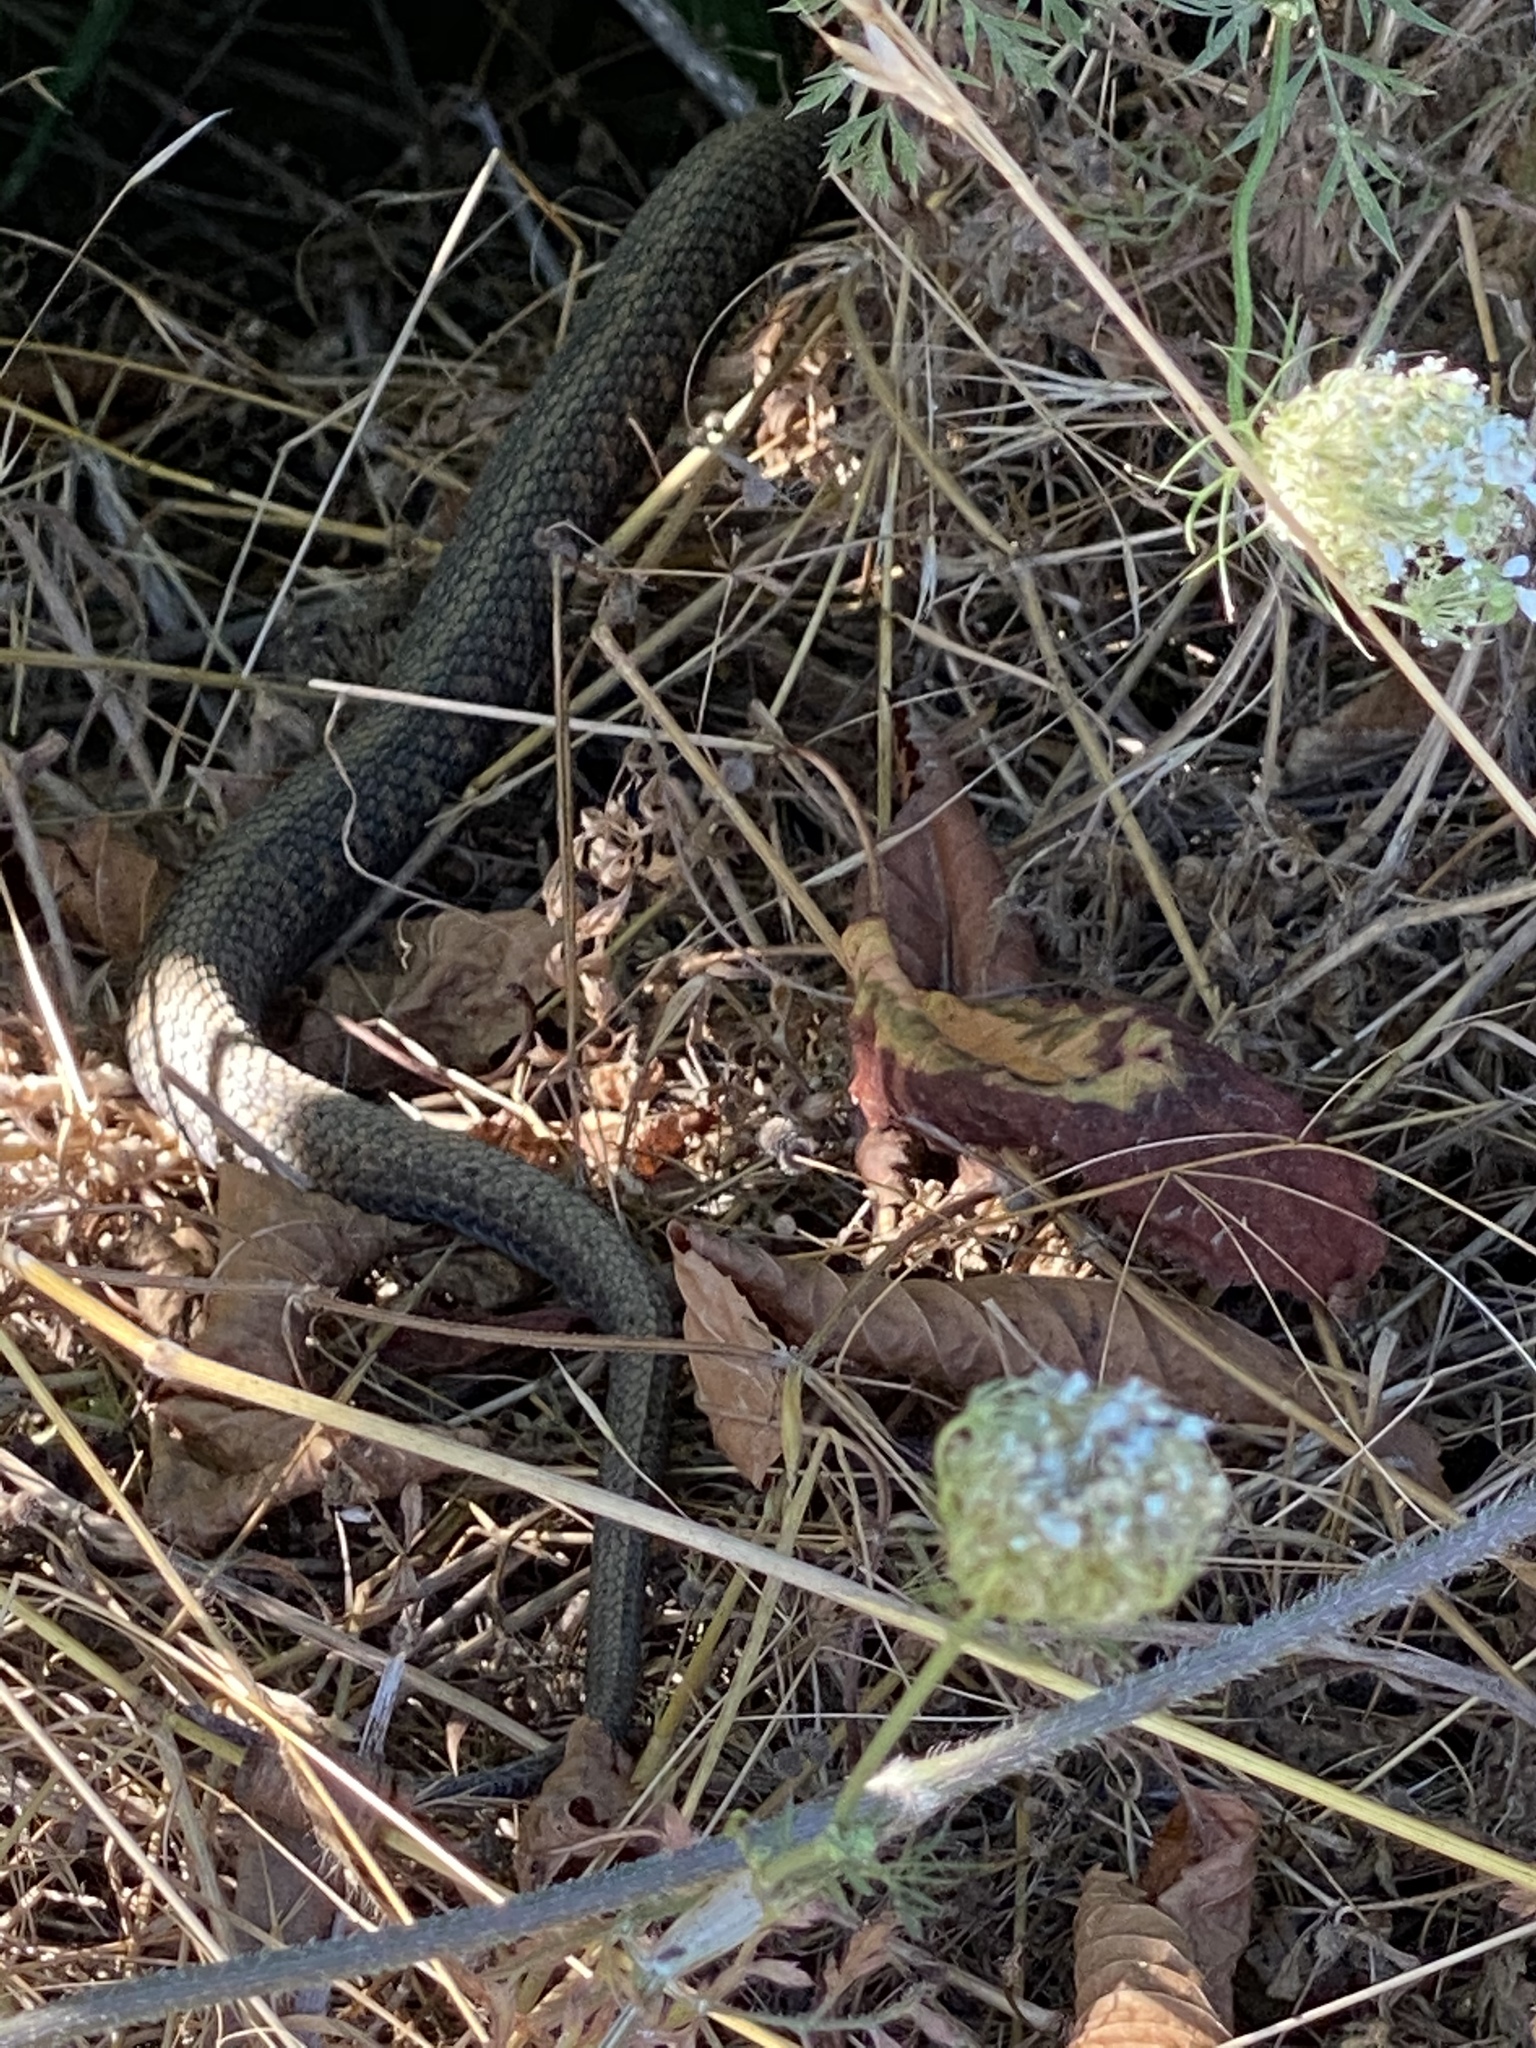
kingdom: Animalia
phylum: Chordata
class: Squamata
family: Colubridae
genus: Thamnophis
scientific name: Thamnophis ordinoides
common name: Northwestern garter snake
